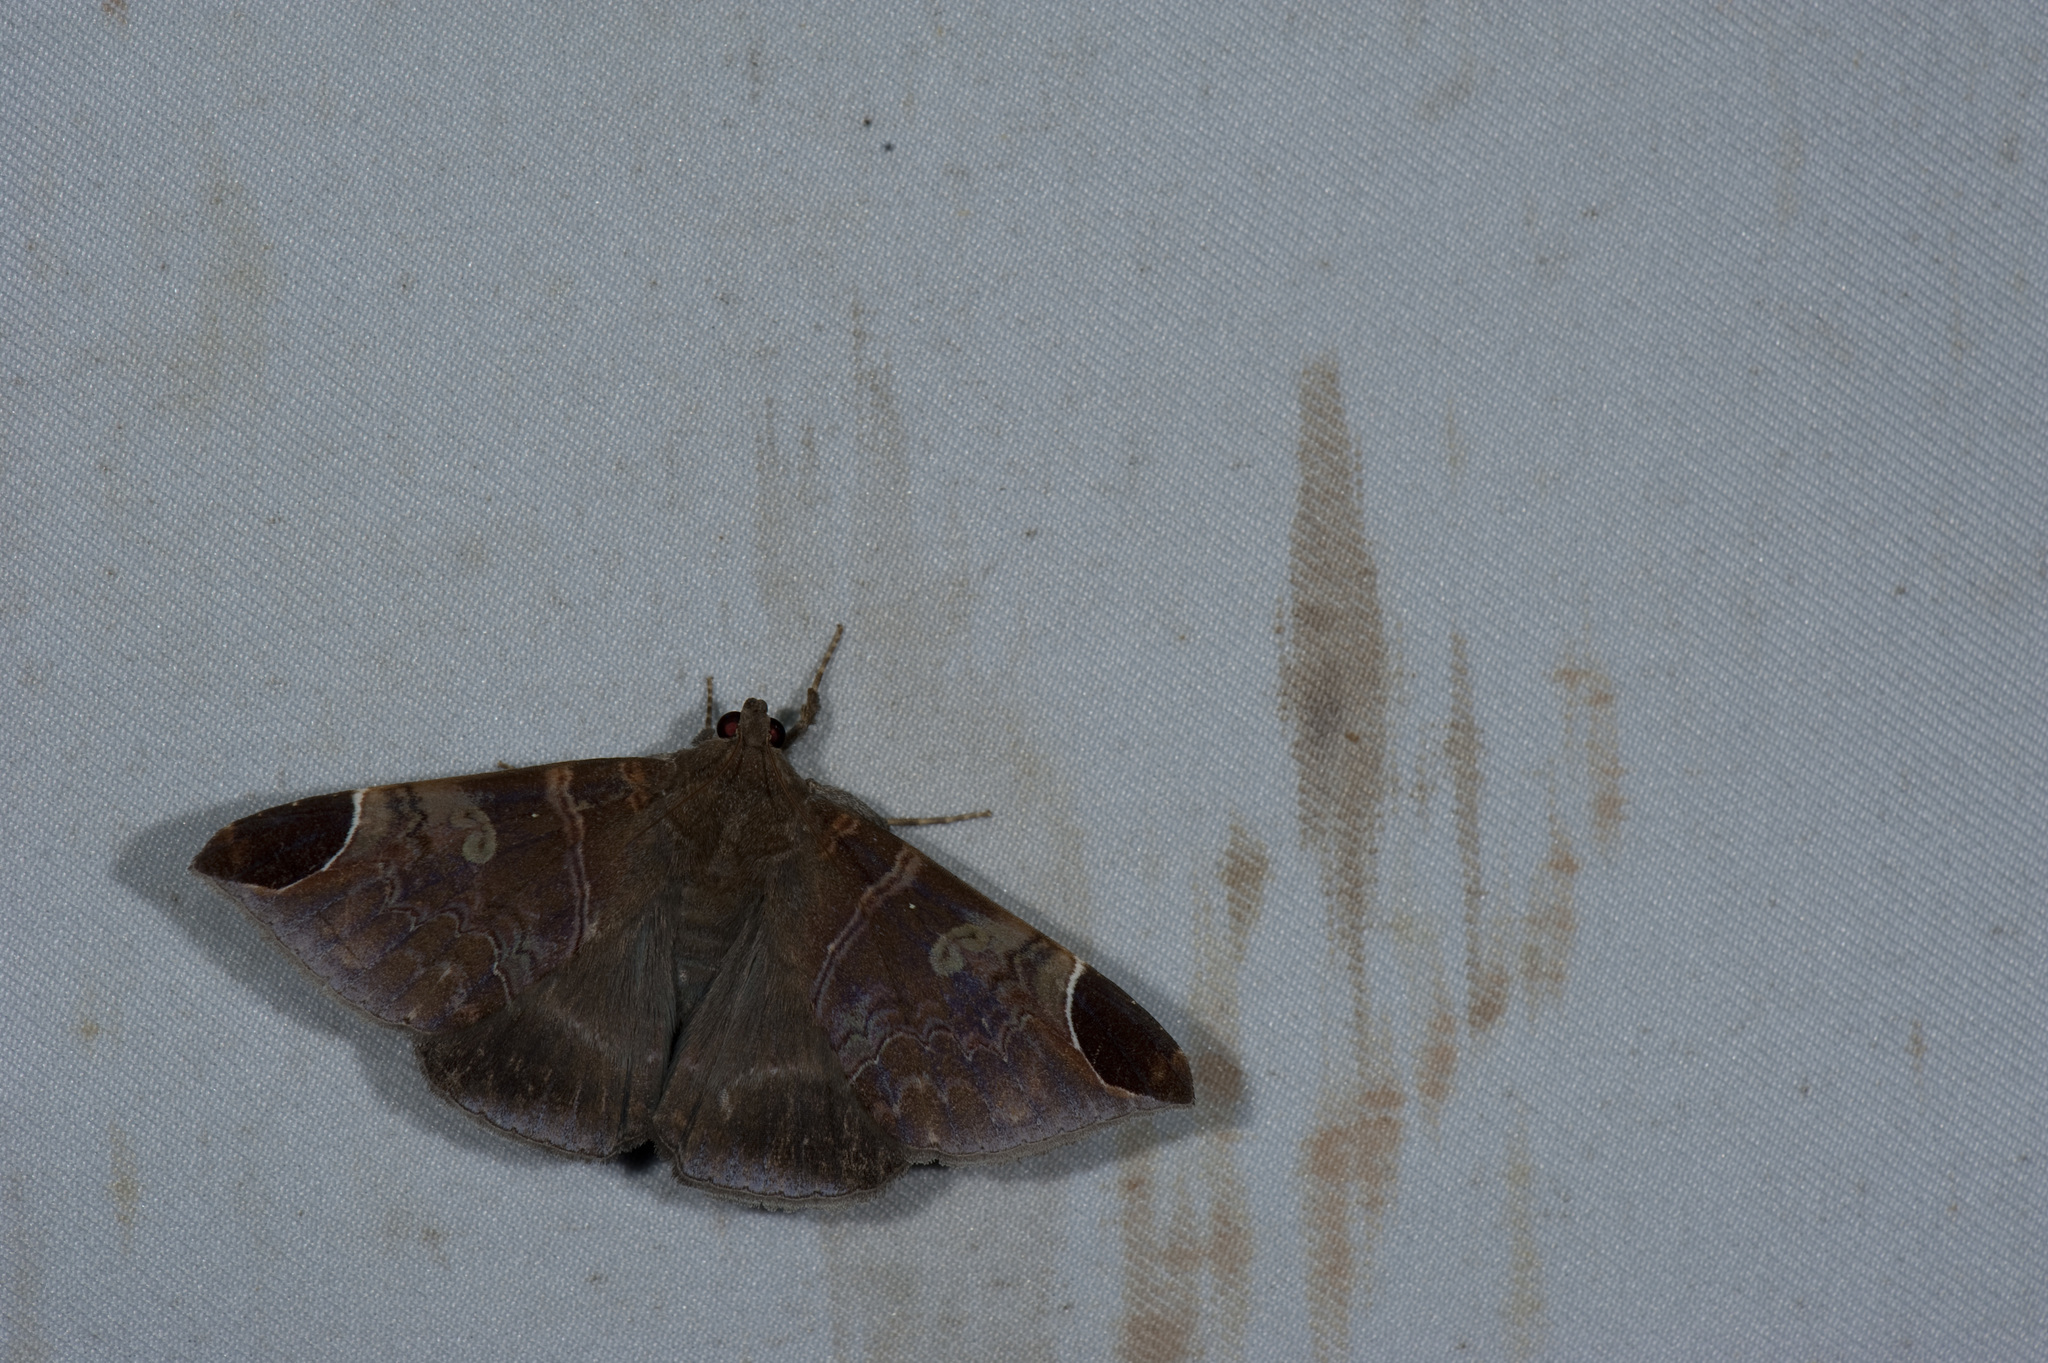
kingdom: Animalia
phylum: Arthropoda
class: Insecta
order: Lepidoptera
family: Erebidae
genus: Pindara
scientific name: Pindara illibata
